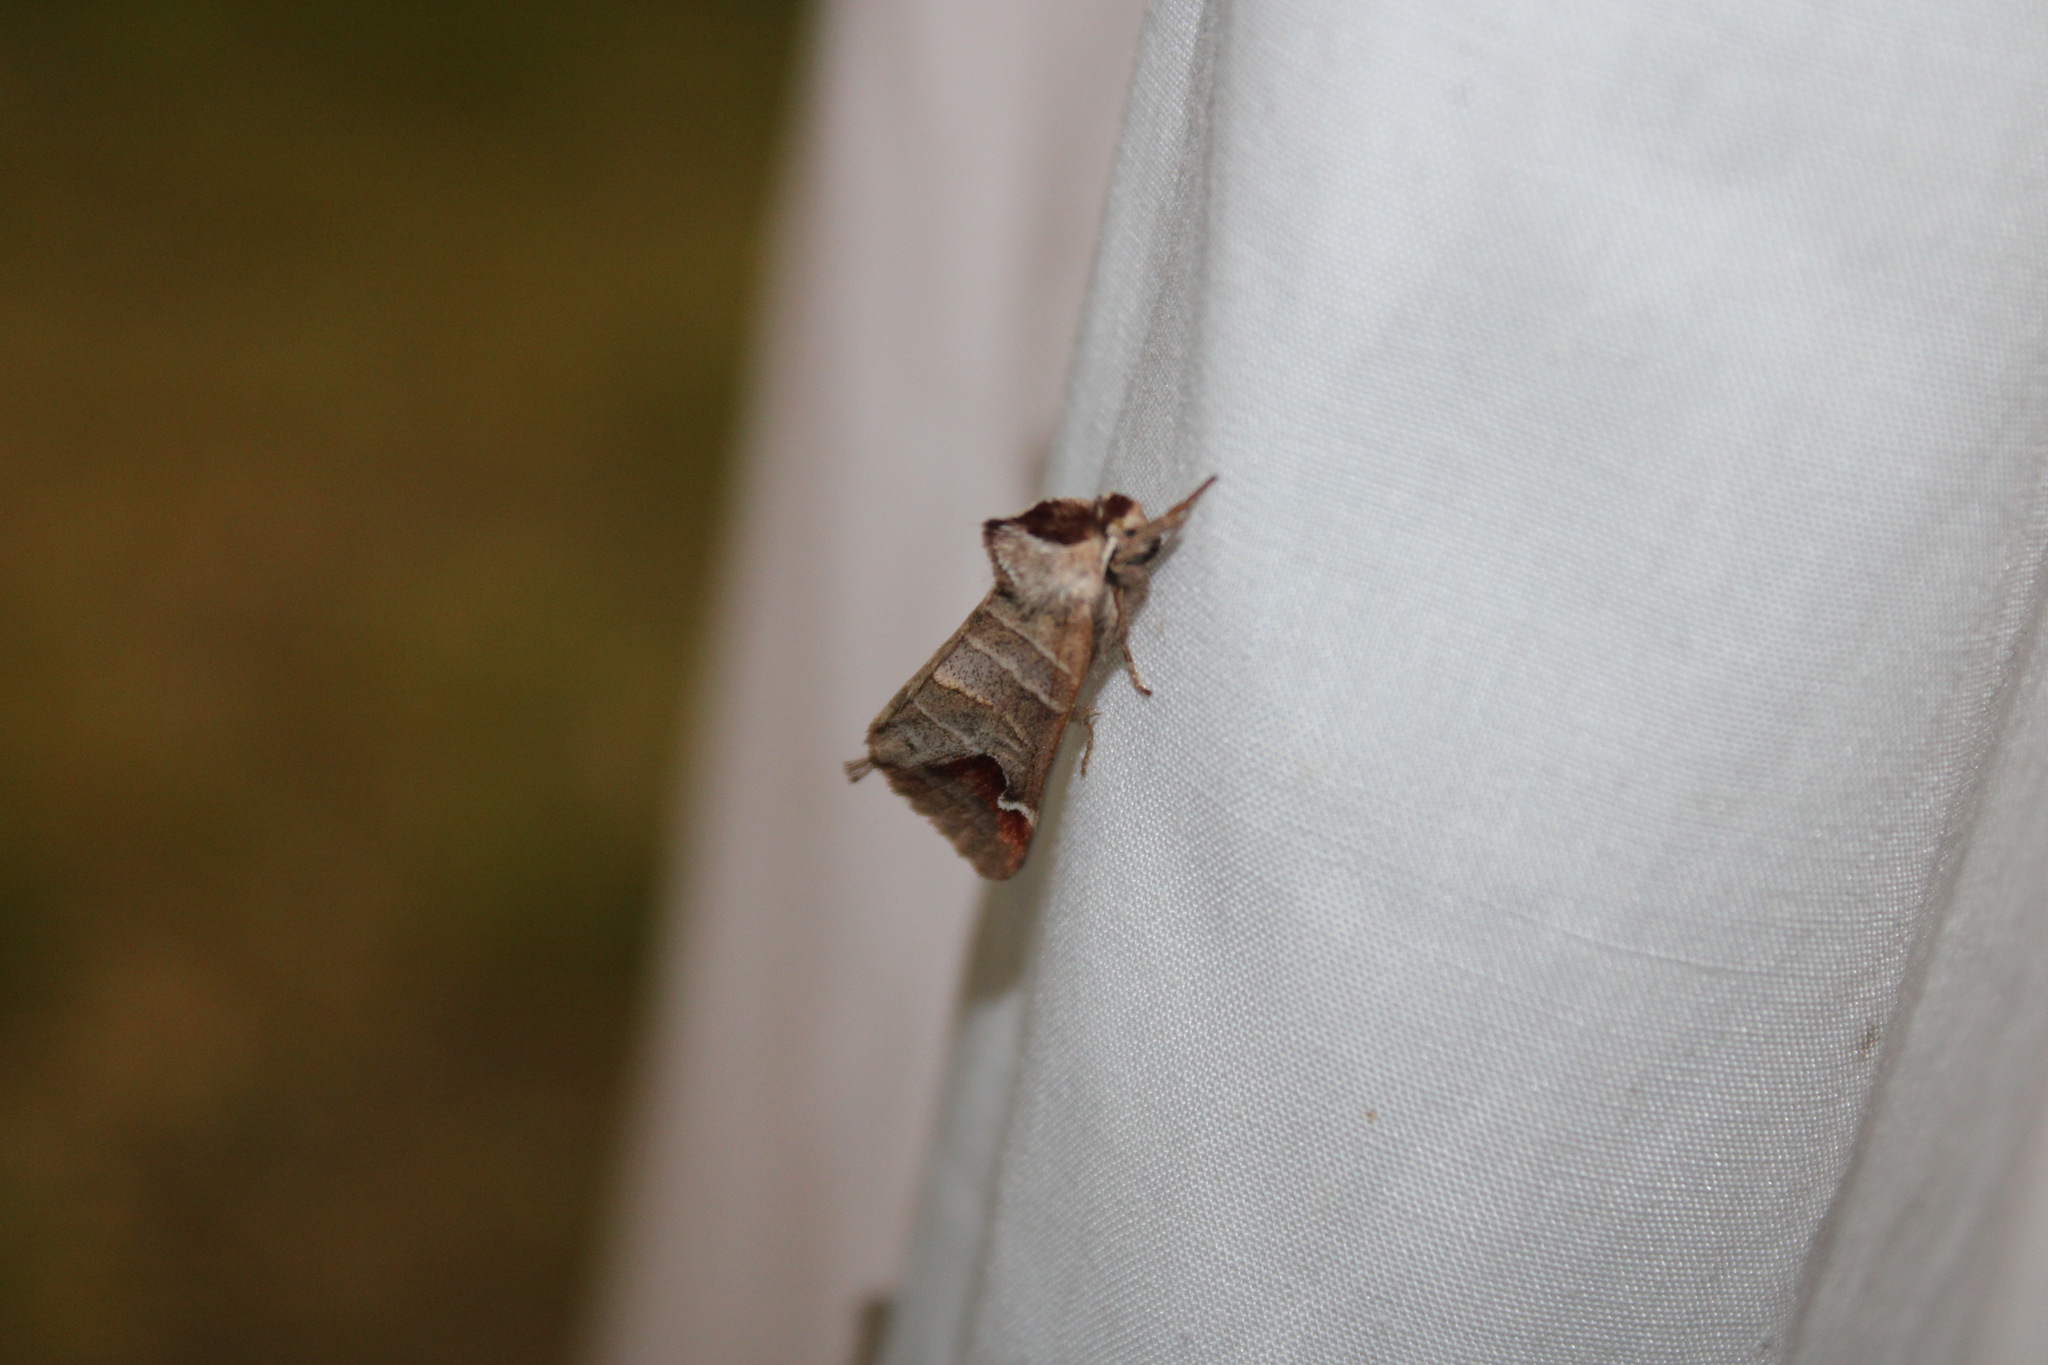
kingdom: Animalia
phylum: Arthropoda
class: Insecta
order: Lepidoptera
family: Notodontidae
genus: Clostera
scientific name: Clostera albosigma
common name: Sigmoid prominent
